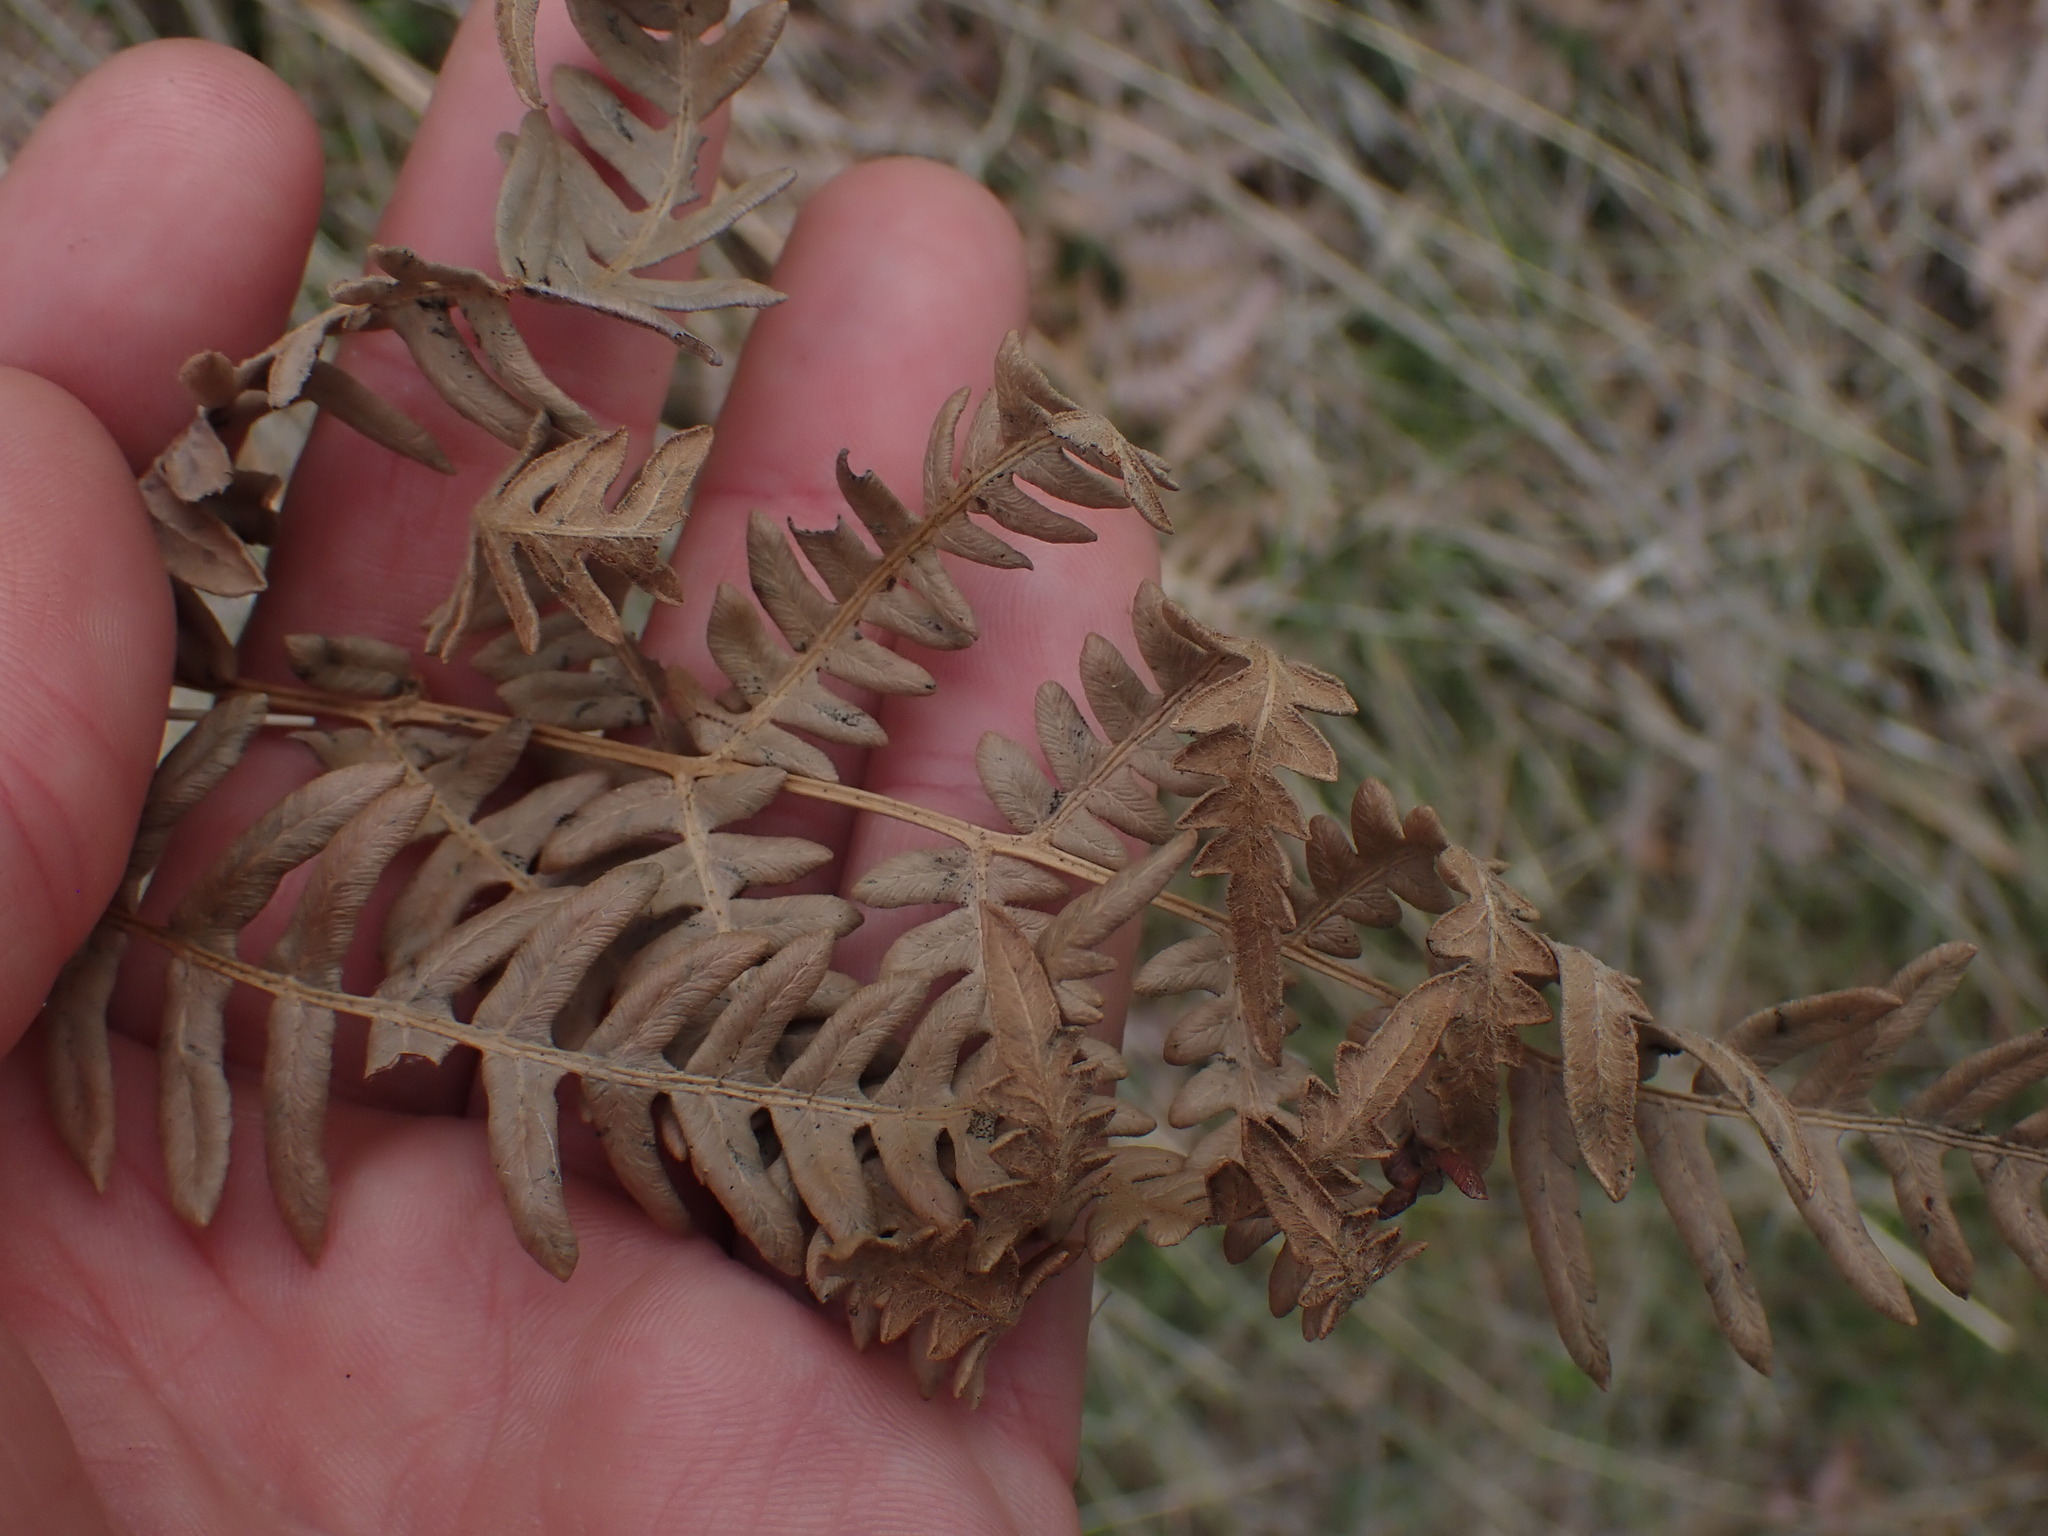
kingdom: Plantae
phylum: Tracheophyta
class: Polypodiopsida
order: Polypodiales
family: Dennstaedtiaceae
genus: Pteridium
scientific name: Pteridium aquilinum
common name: Bracken
